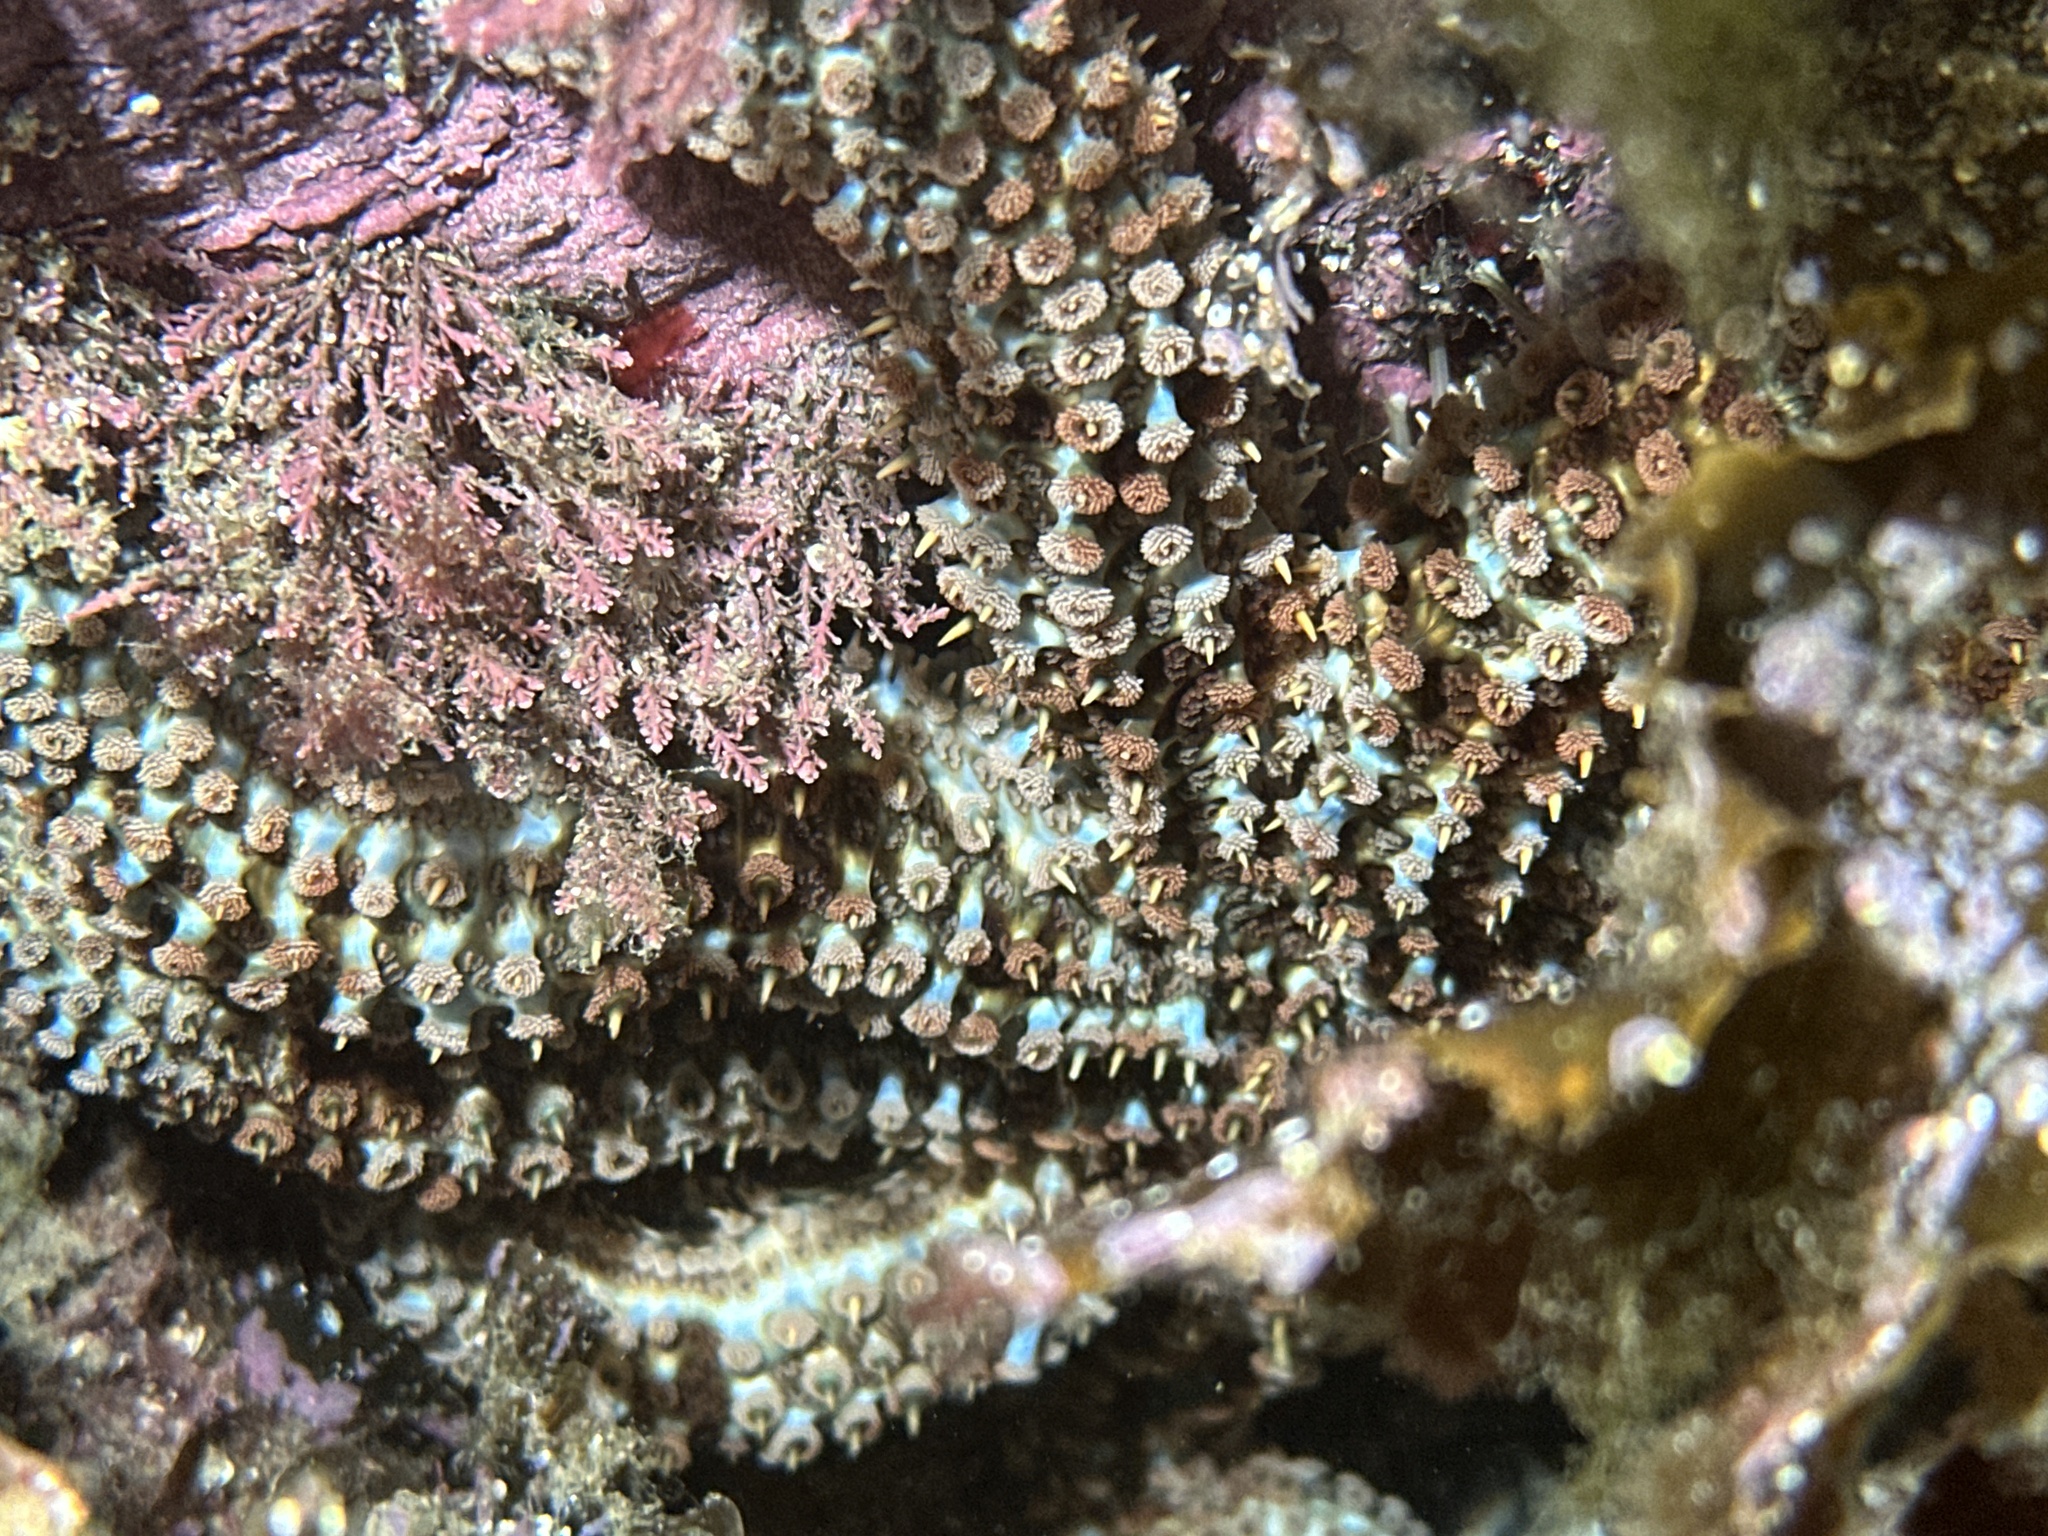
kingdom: Animalia
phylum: Echinodermata
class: Asteroidea
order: Forcipulatida
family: Asteriidae
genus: Coscinasterias
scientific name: Coscinasterias muricata
